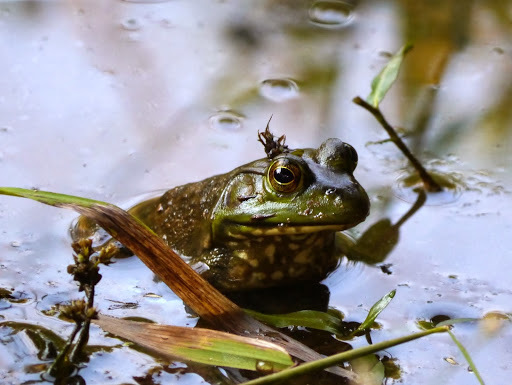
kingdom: Animalia
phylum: Chordata
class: Amphibia
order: Anura
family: Ranidae
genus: Lithobates
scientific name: Lithobates catesbeianus
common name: American bullfrog
